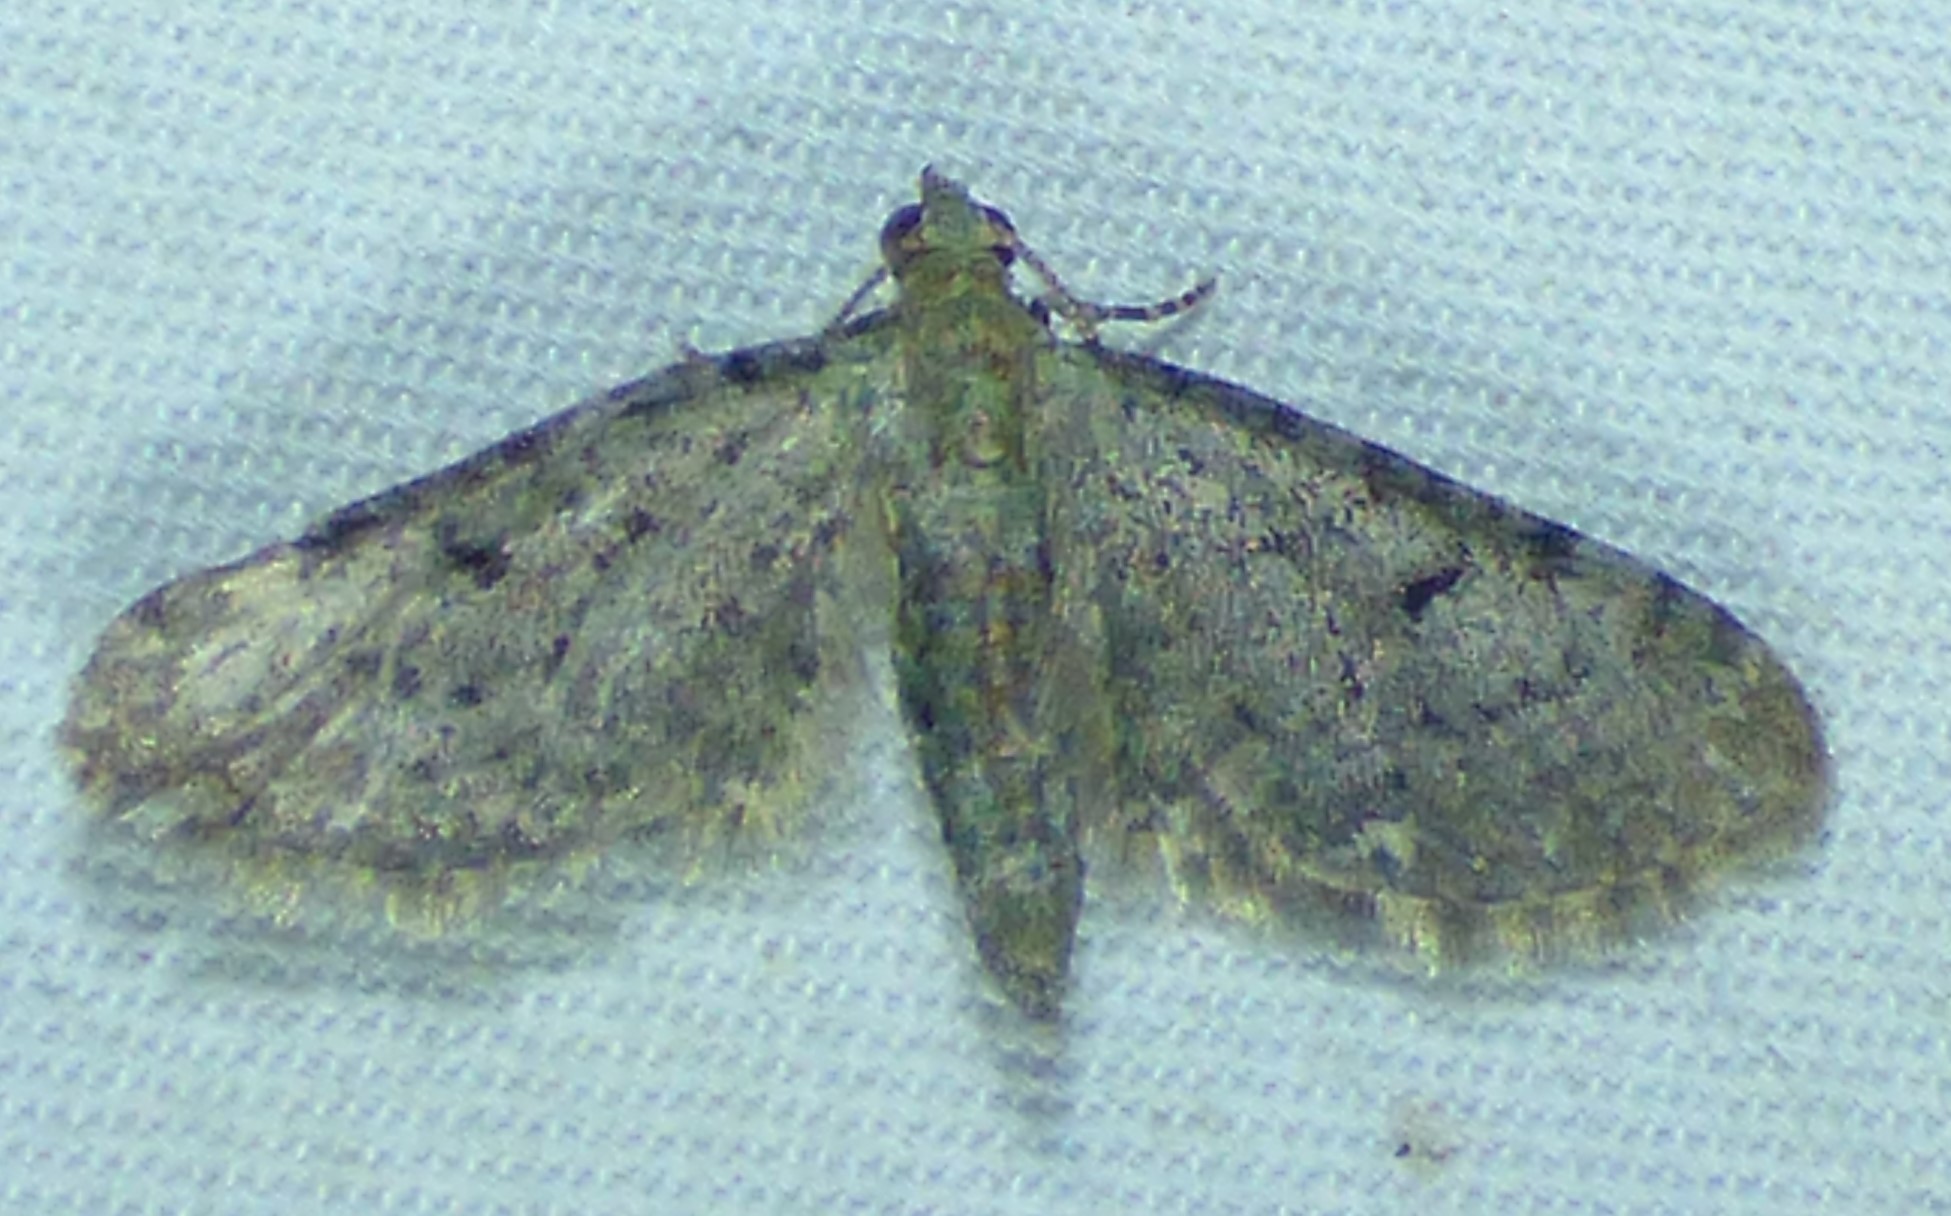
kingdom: Animalia
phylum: Arthropoda
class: Insecta
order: Lepidoptera
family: Geometridae
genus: Eupithecia
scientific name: Eupithecia miserulata
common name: Common eupithecia
